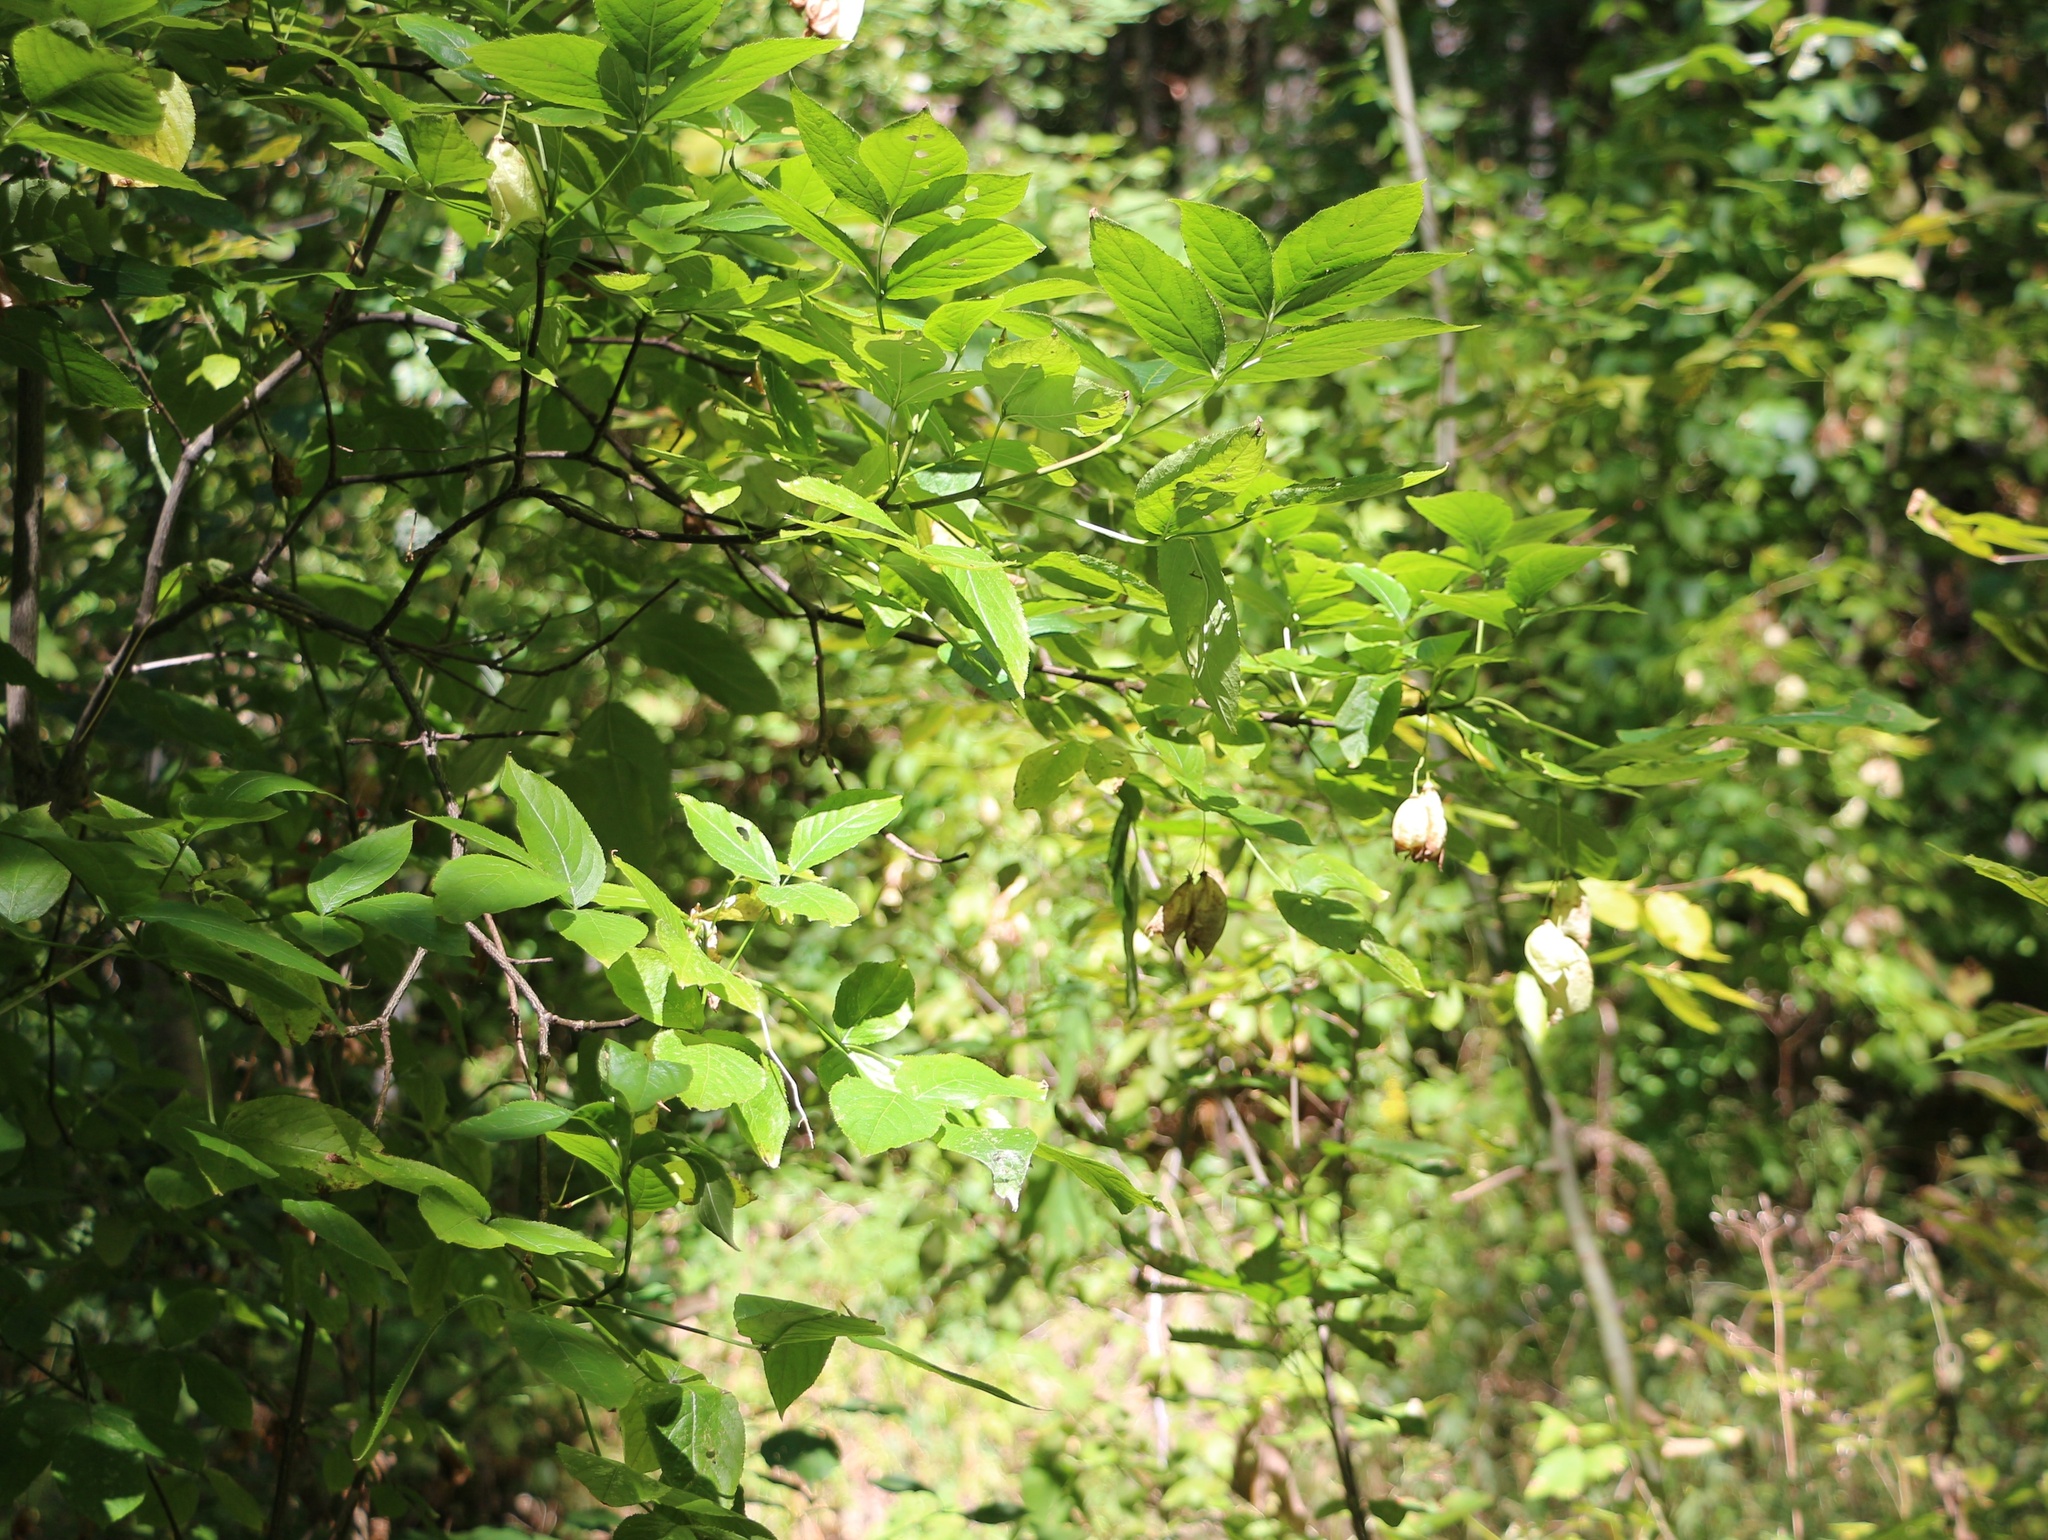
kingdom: Plantae
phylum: Tracheophyta
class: Magnoliopsida
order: Crossosomatales
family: Staphyleaceae
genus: Staphylea
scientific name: Staphylea colchica
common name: Caucasian bladdernut
